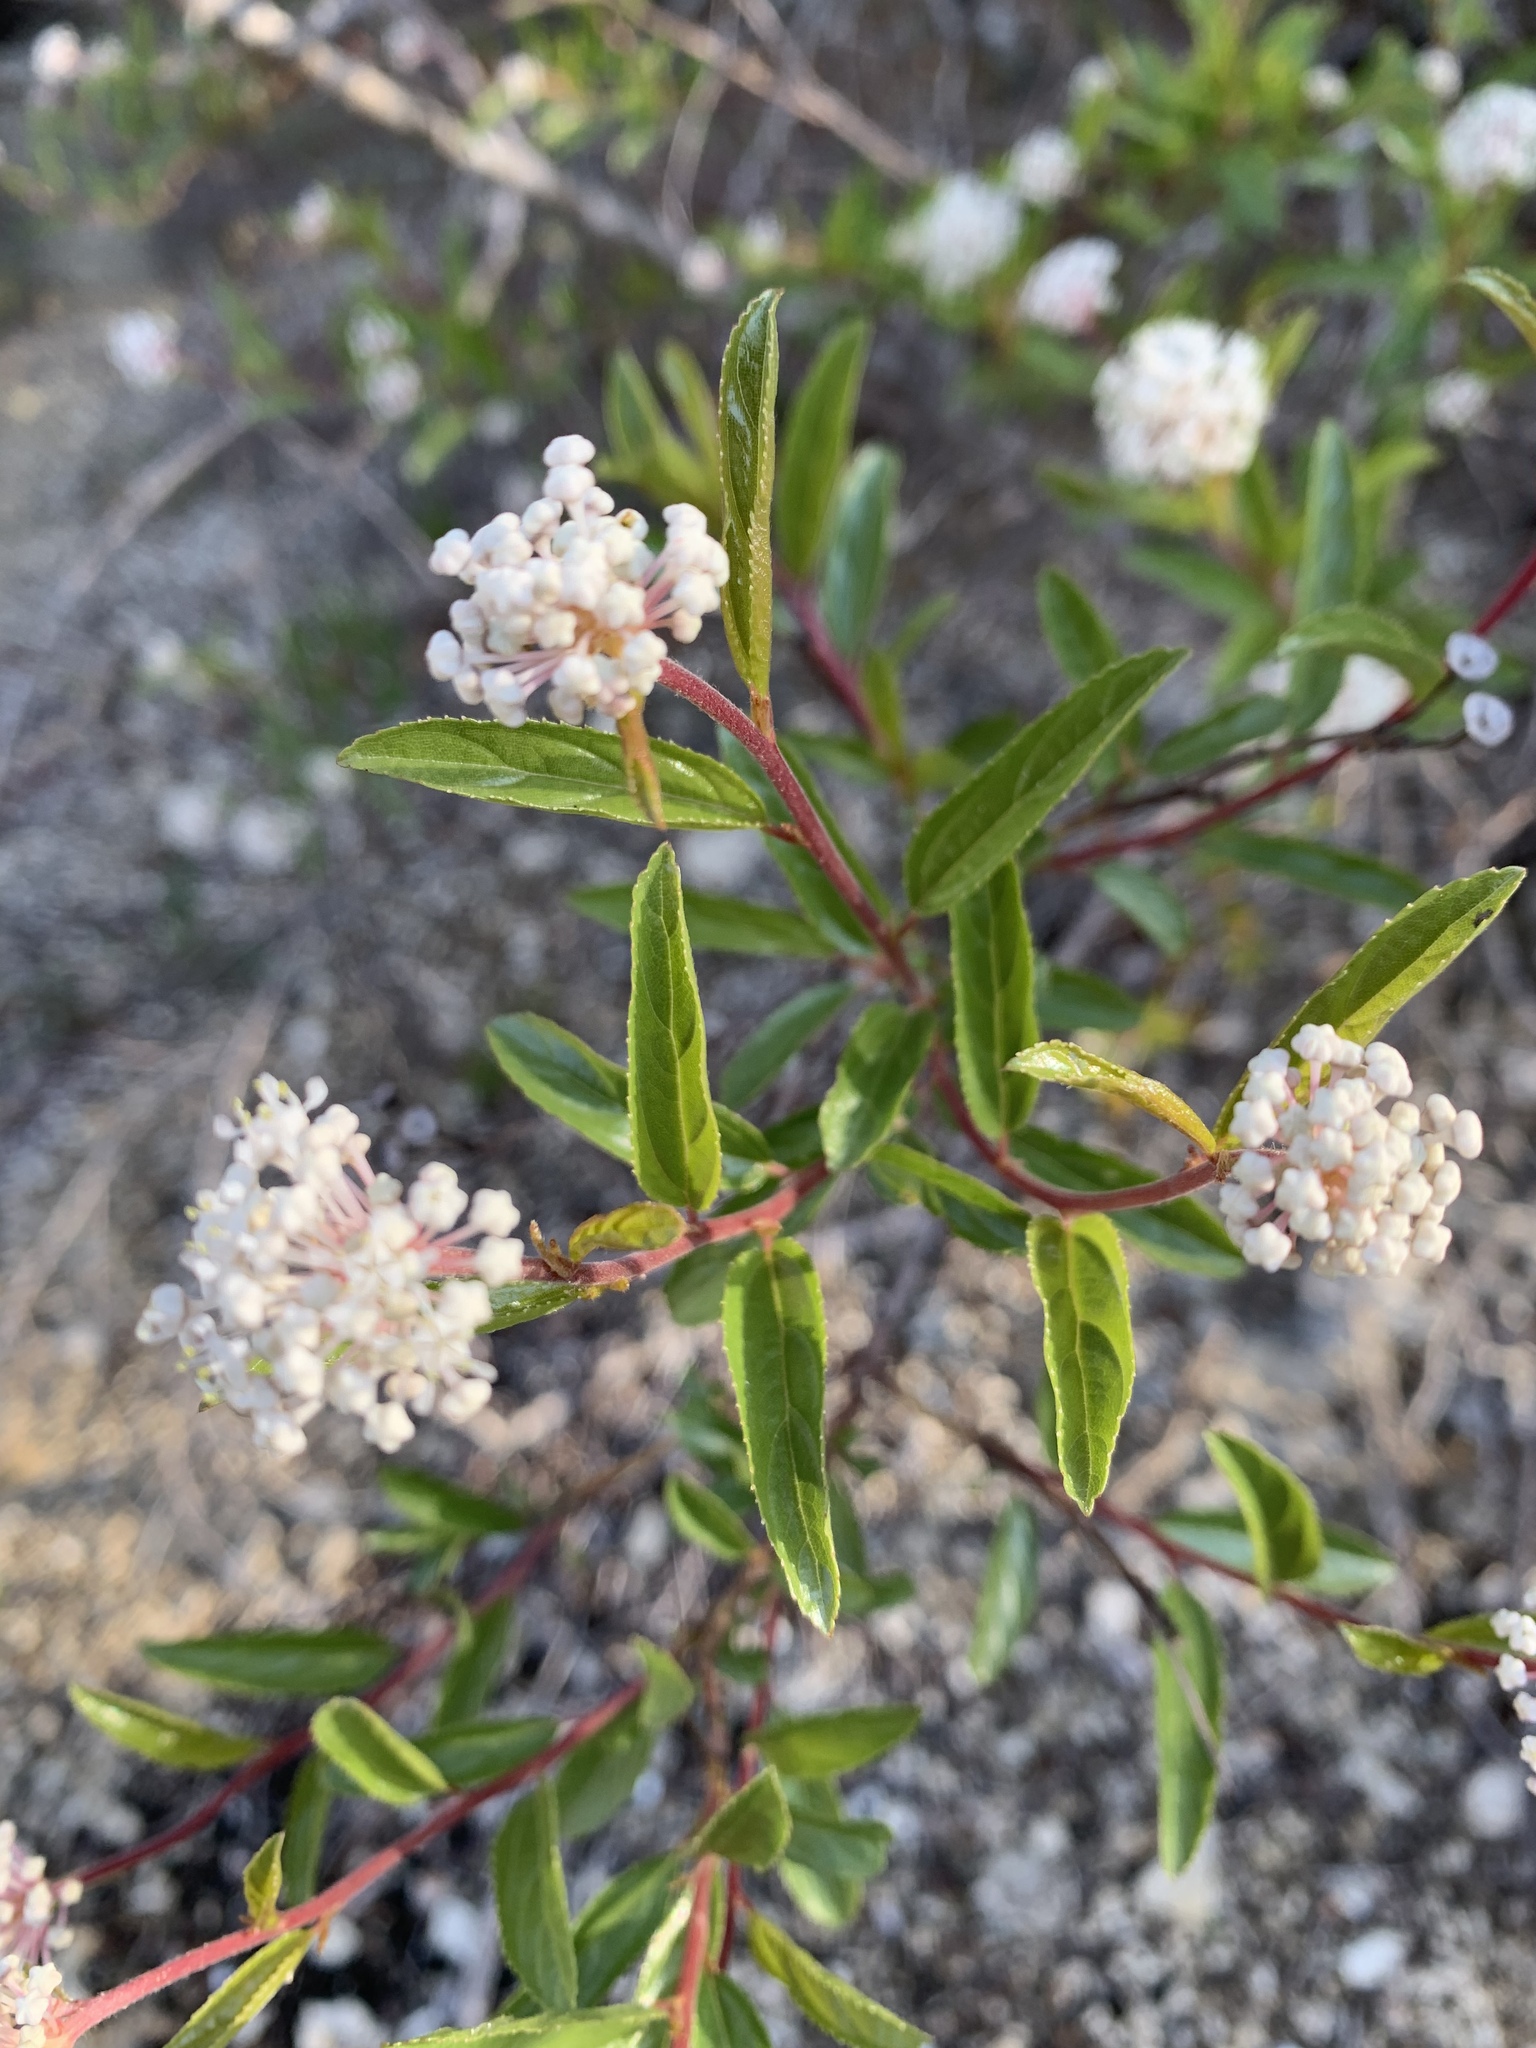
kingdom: Plantae
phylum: Tracheophyta
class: Magnoliopsida
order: Rosales
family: Rhamnaceae
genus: Ceanothus
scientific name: Ceanothus herbaceus
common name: Inland ceanothus
